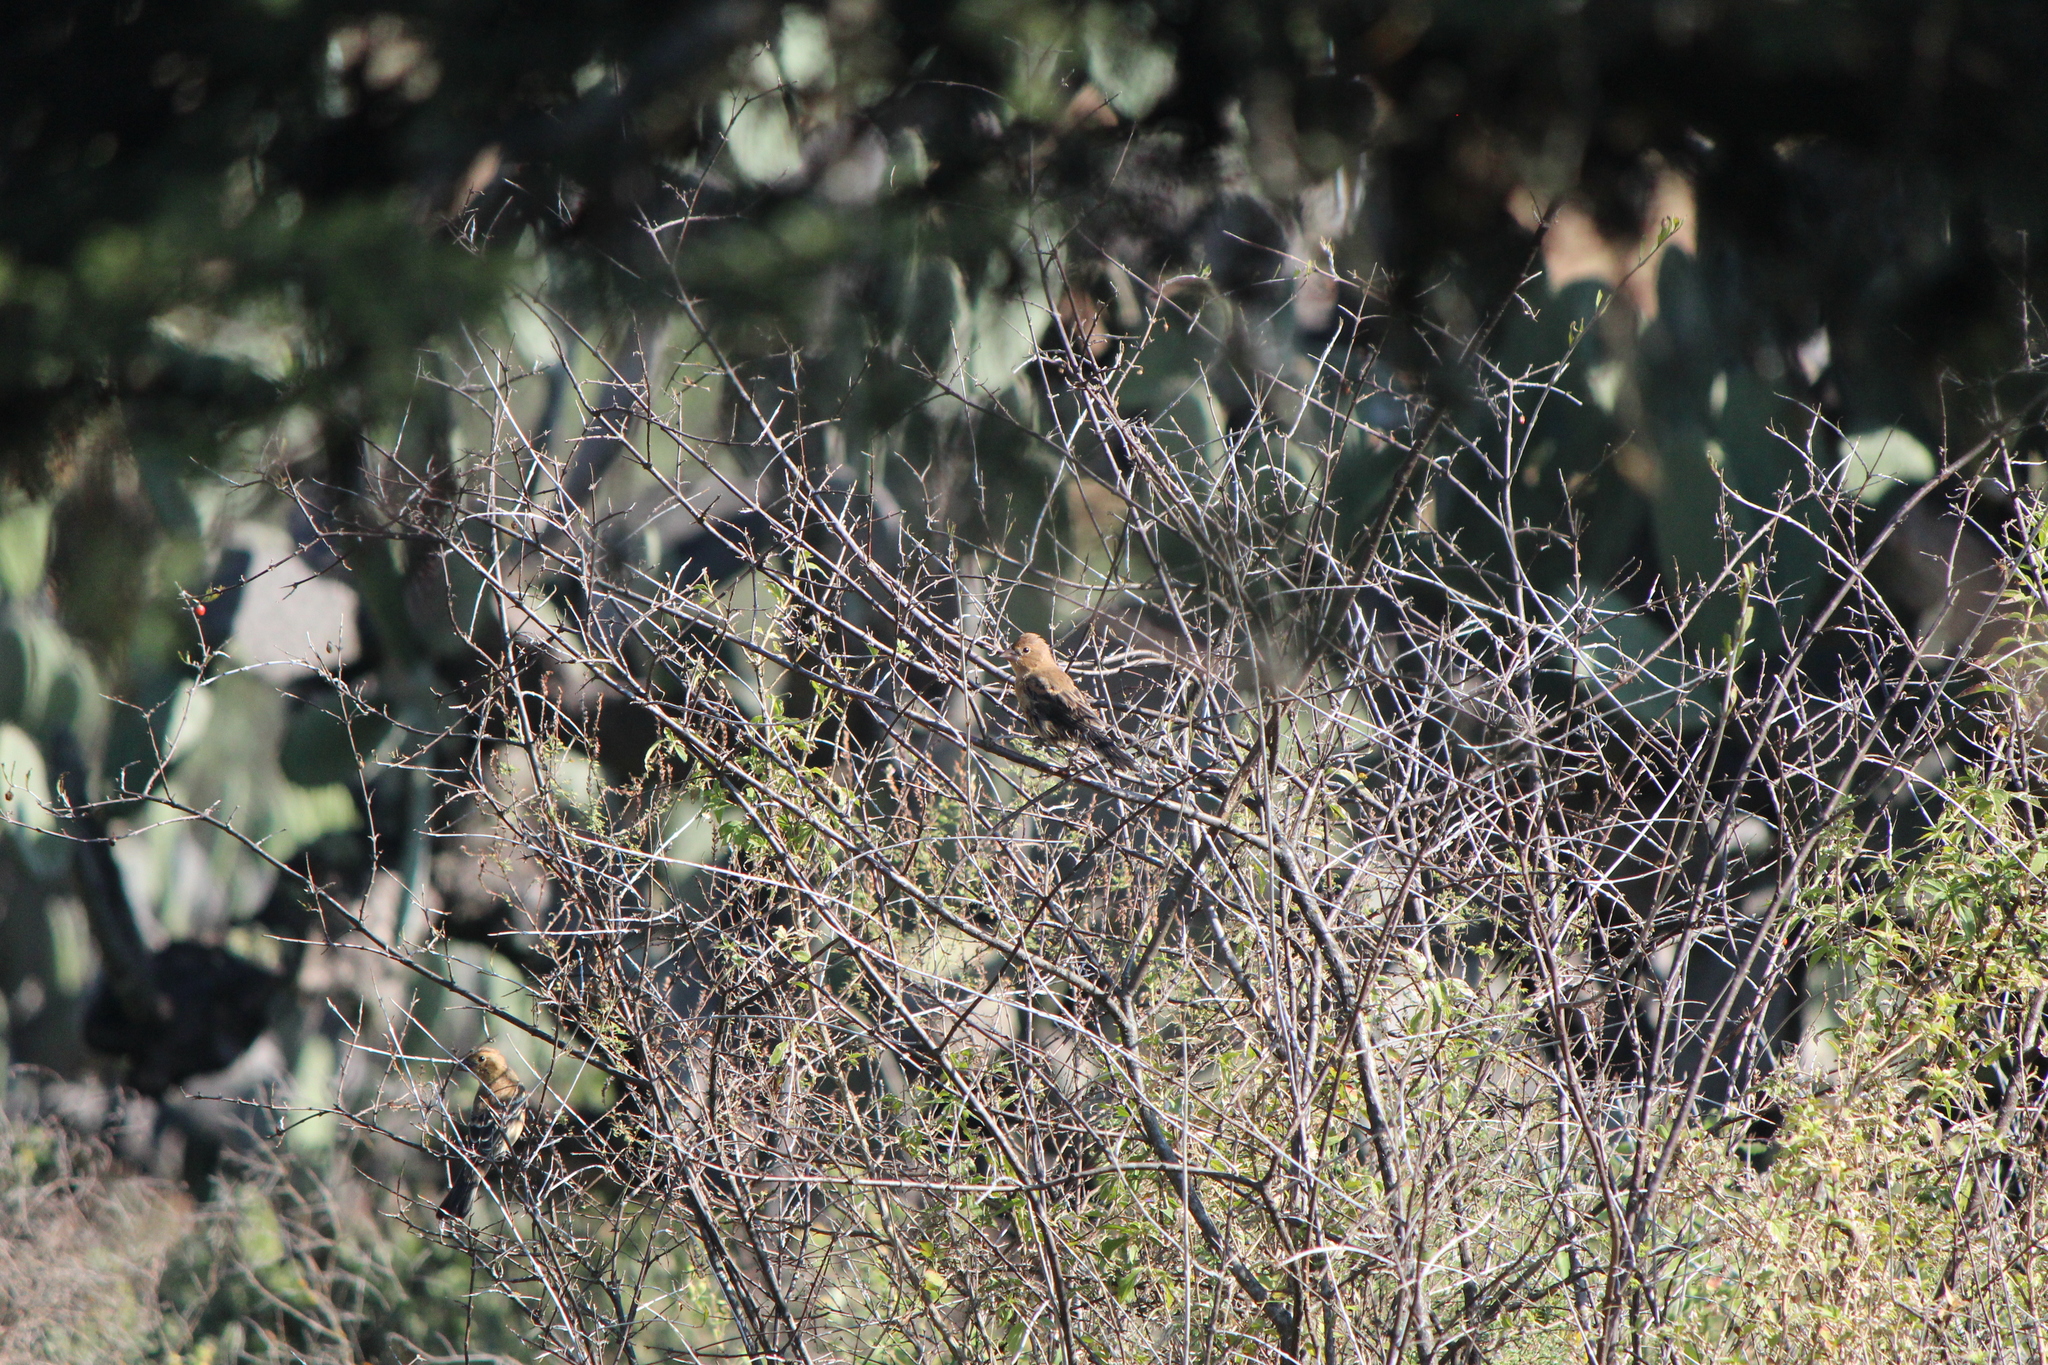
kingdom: Animalia
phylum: Chordata
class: Aves
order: Passeriformes
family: Cardinalidae
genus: Passerina
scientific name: Passerina caerulea
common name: Blue grosbeak
